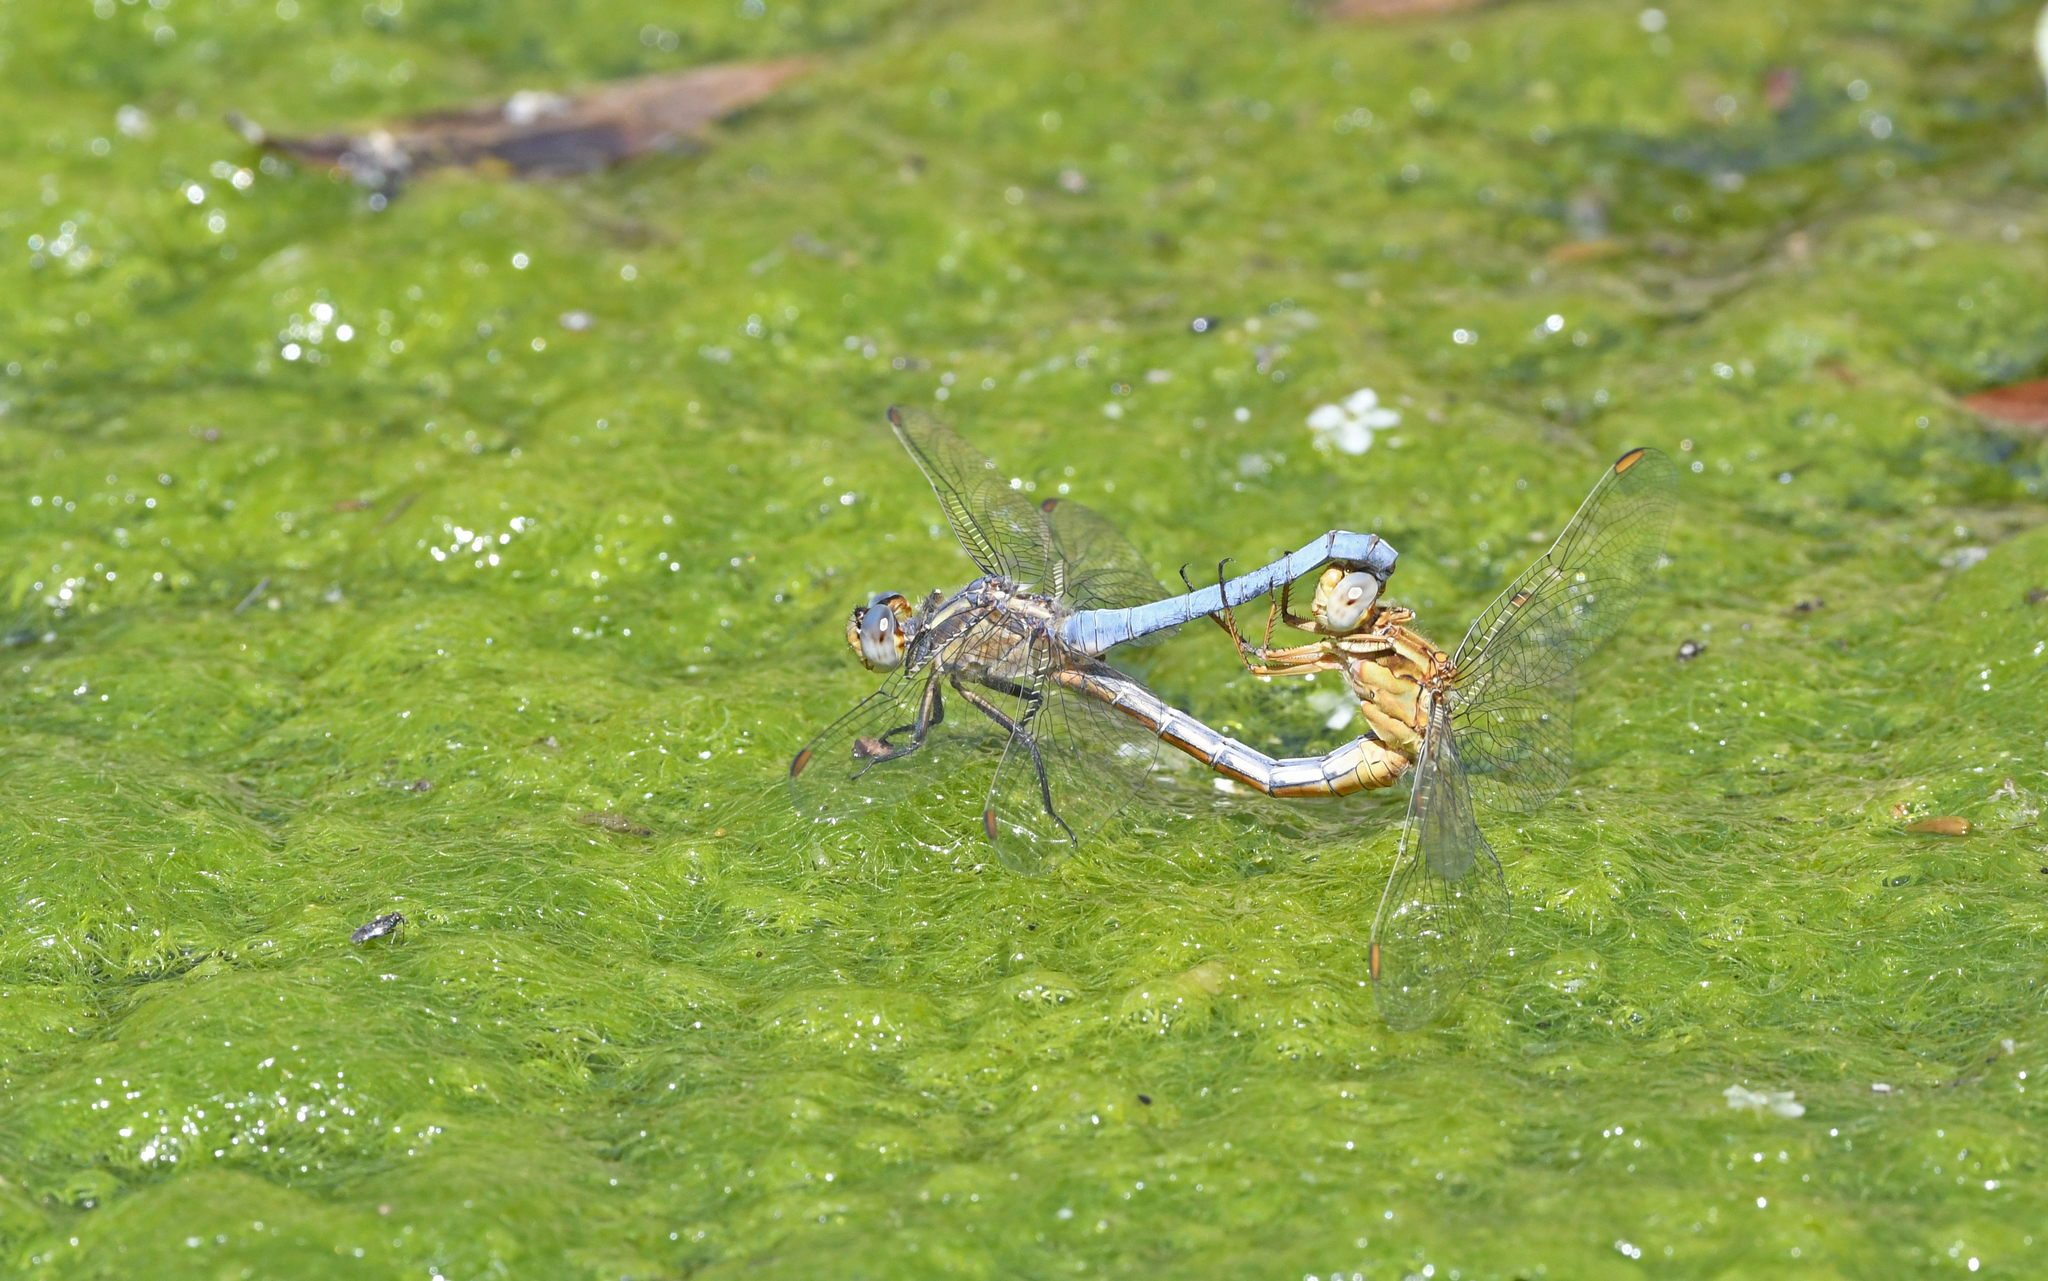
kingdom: Animalia
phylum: Arthropoda
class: Insecta
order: Odonata
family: Libellulidae
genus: Orthetrum
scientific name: Orthetrum coerulescens
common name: Keeled skimmer
